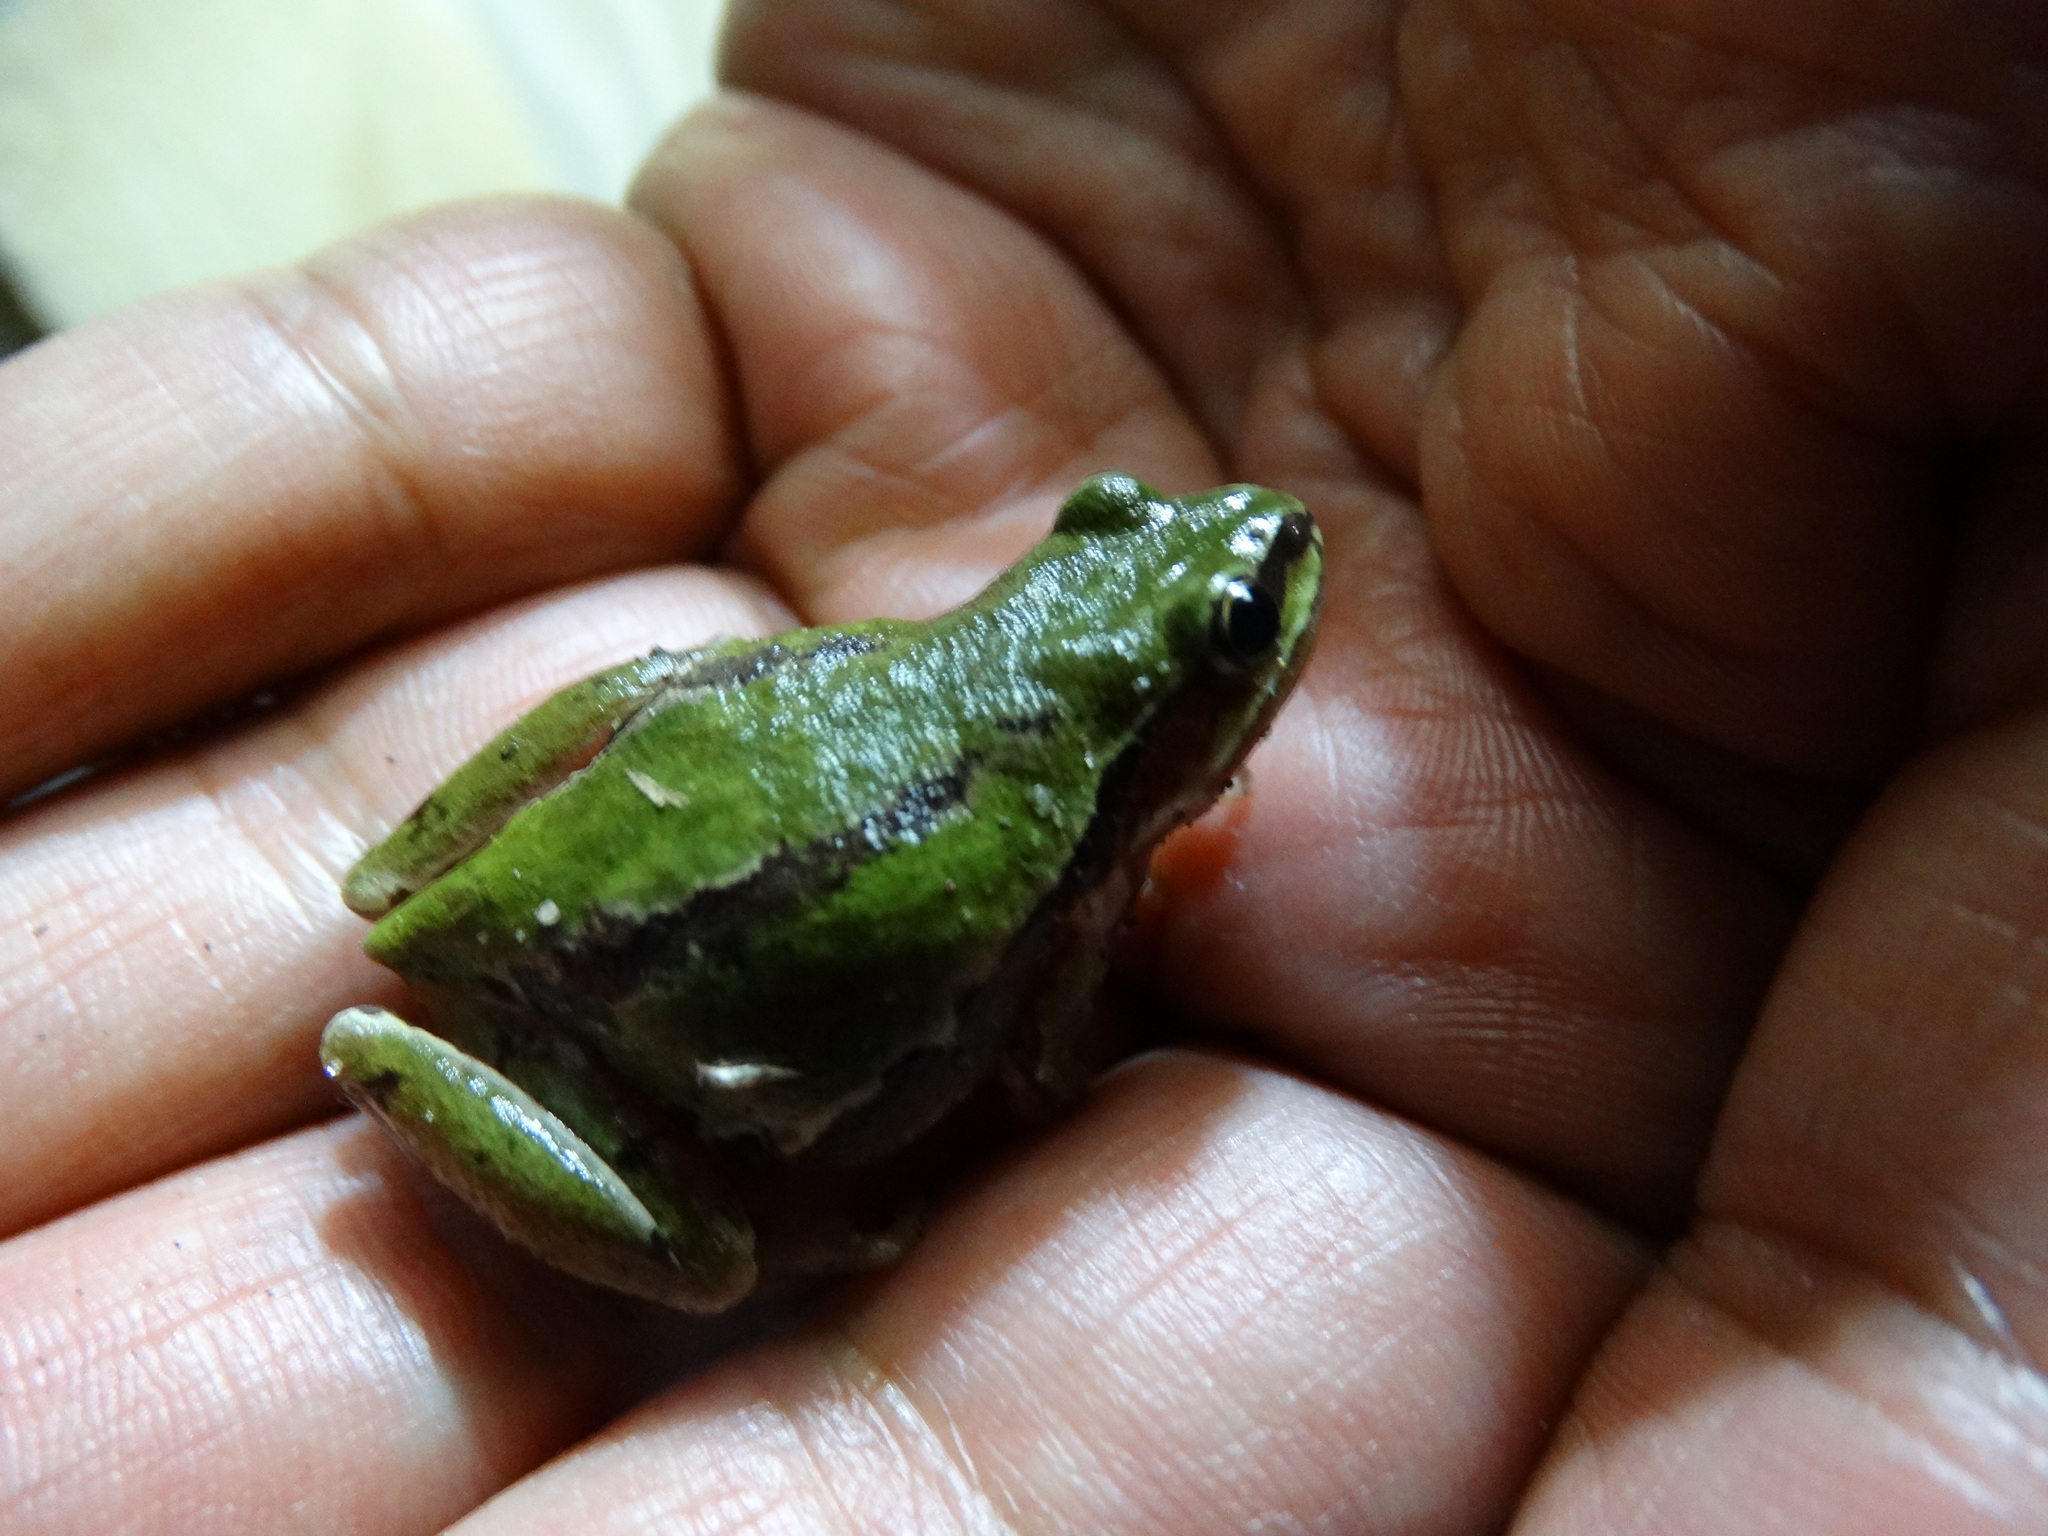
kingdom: Animalia
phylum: Chordata
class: Amphibia
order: Anura
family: Hylidae
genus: Dryophytes
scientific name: Dryophytes eximius
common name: Mountain treefrog
